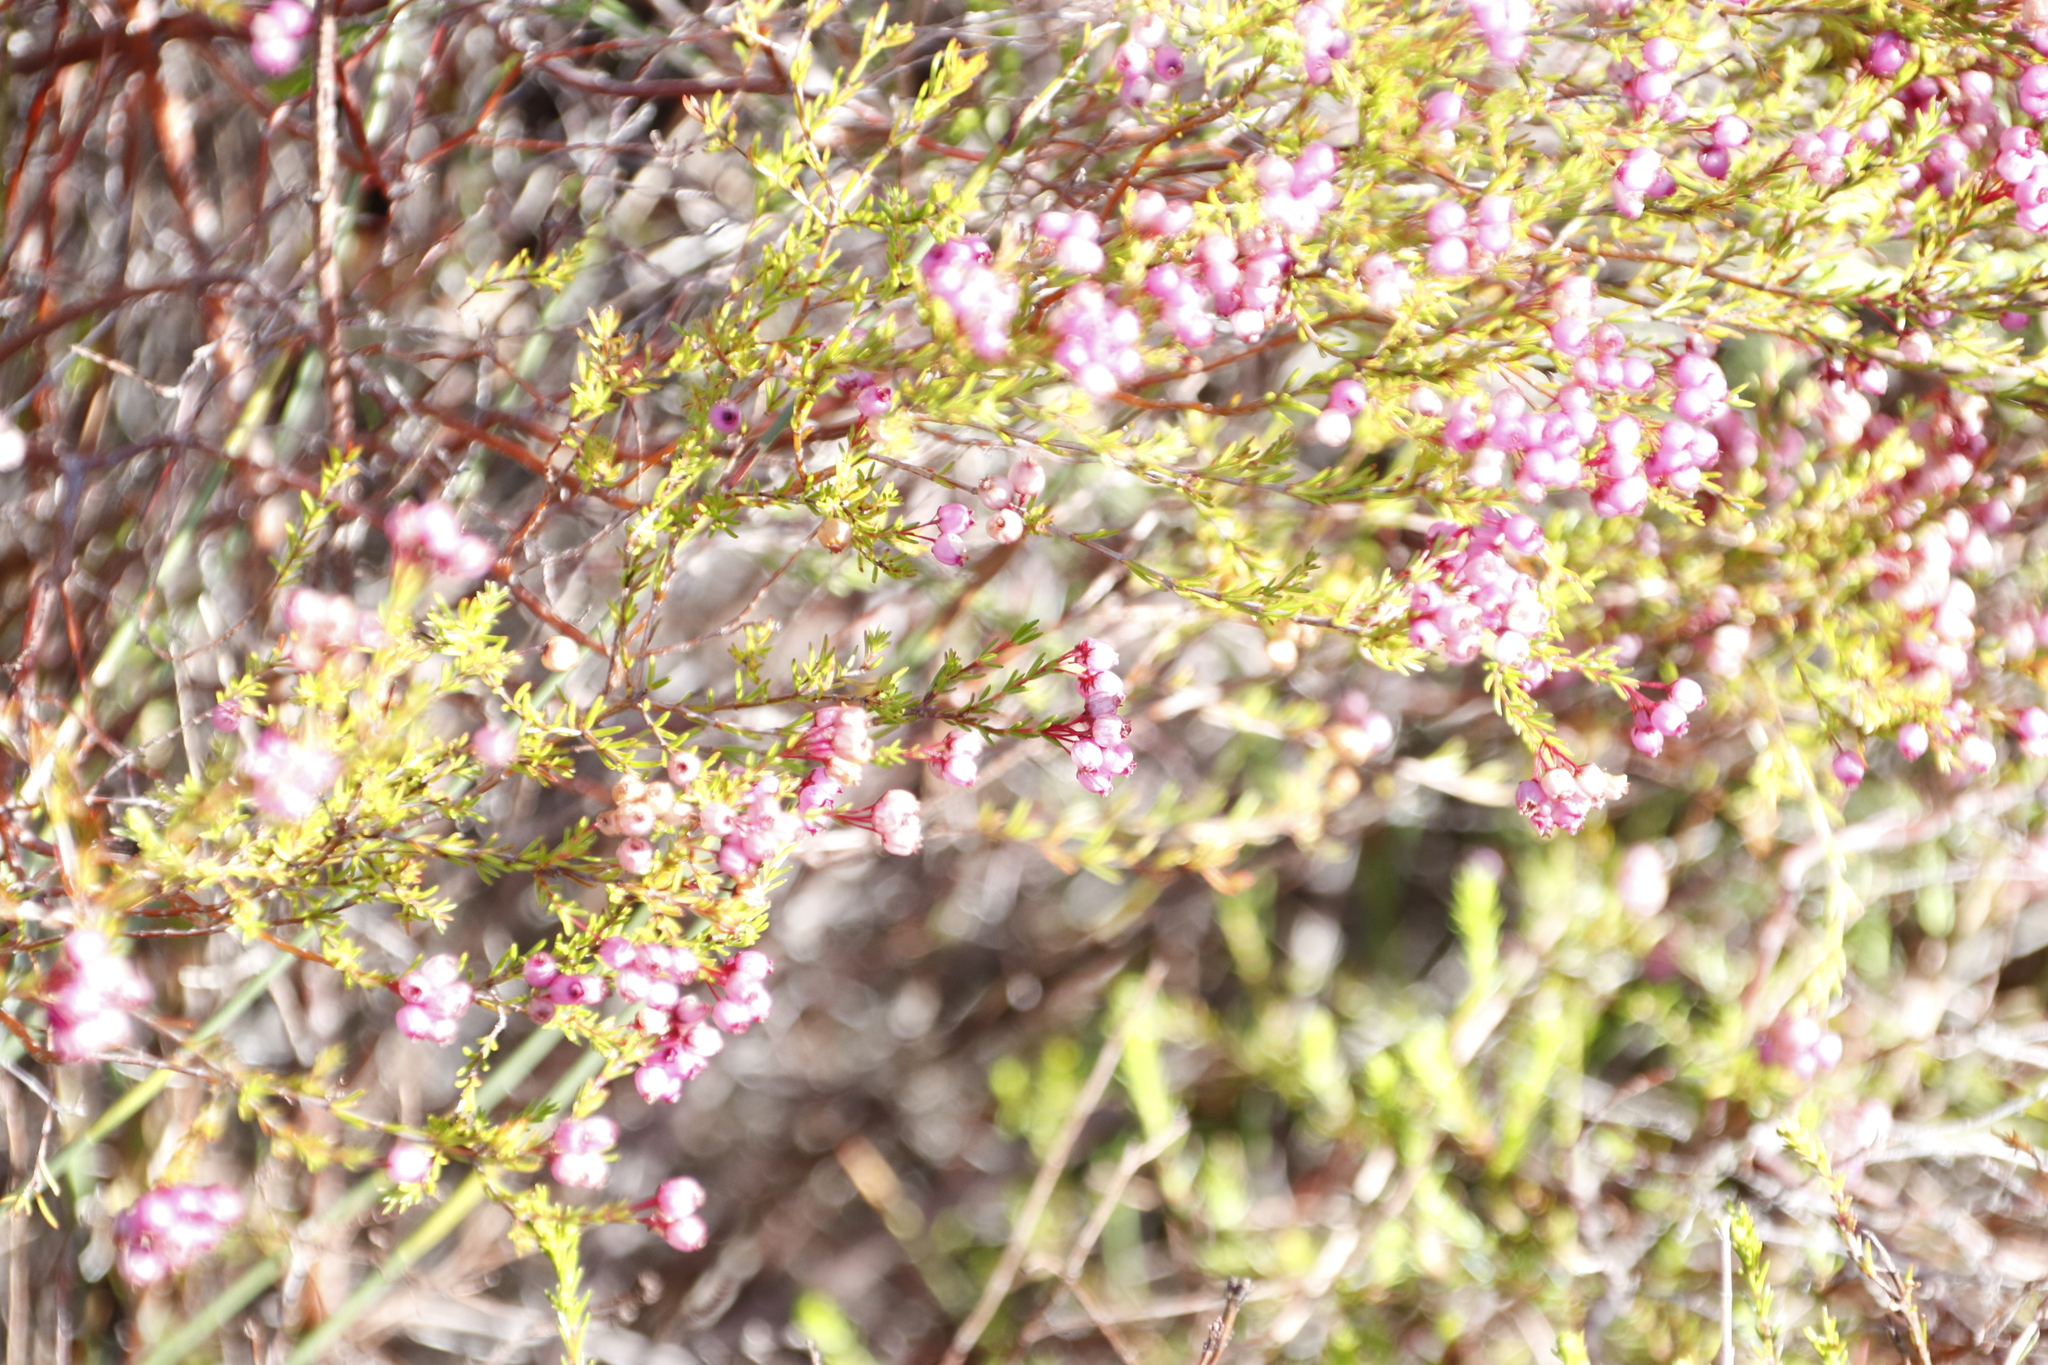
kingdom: Plantae
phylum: Tracheophyta
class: Magnoliopsida
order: Ericales
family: Ericaceae
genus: Erica
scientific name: Erica multumbellifera
